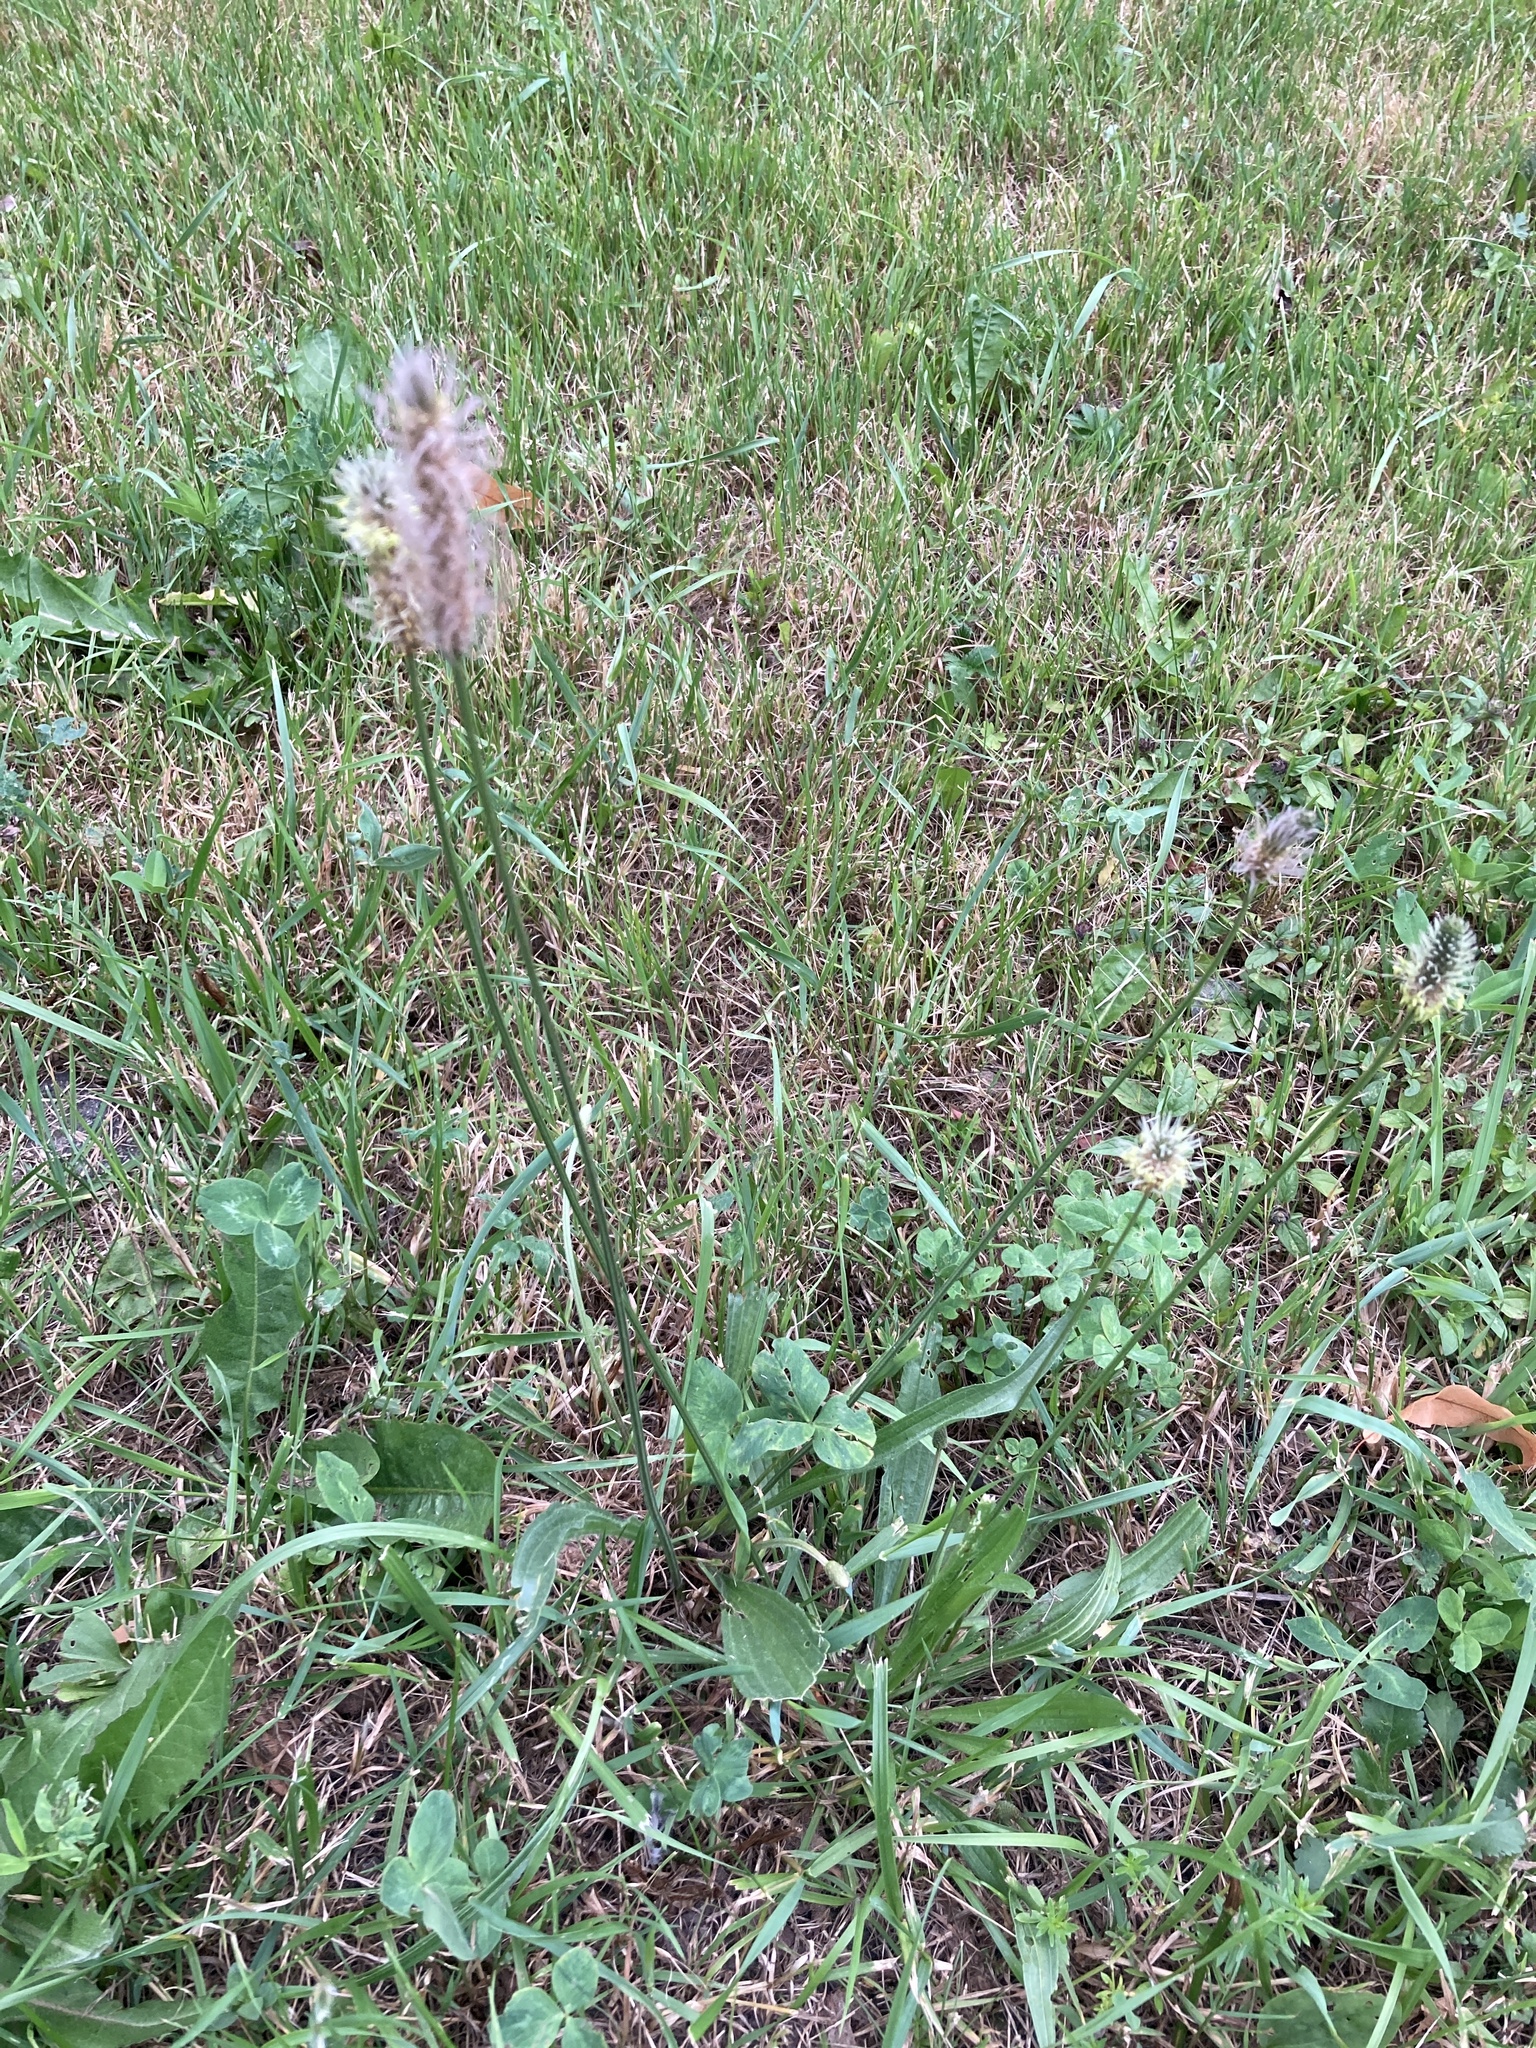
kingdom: Plantae
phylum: Tracheophyta
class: Magnoliopsida
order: Lamiales
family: Plantaginaceae
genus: Plantago
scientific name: Plantago lanceolata
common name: Ribwort plantain
